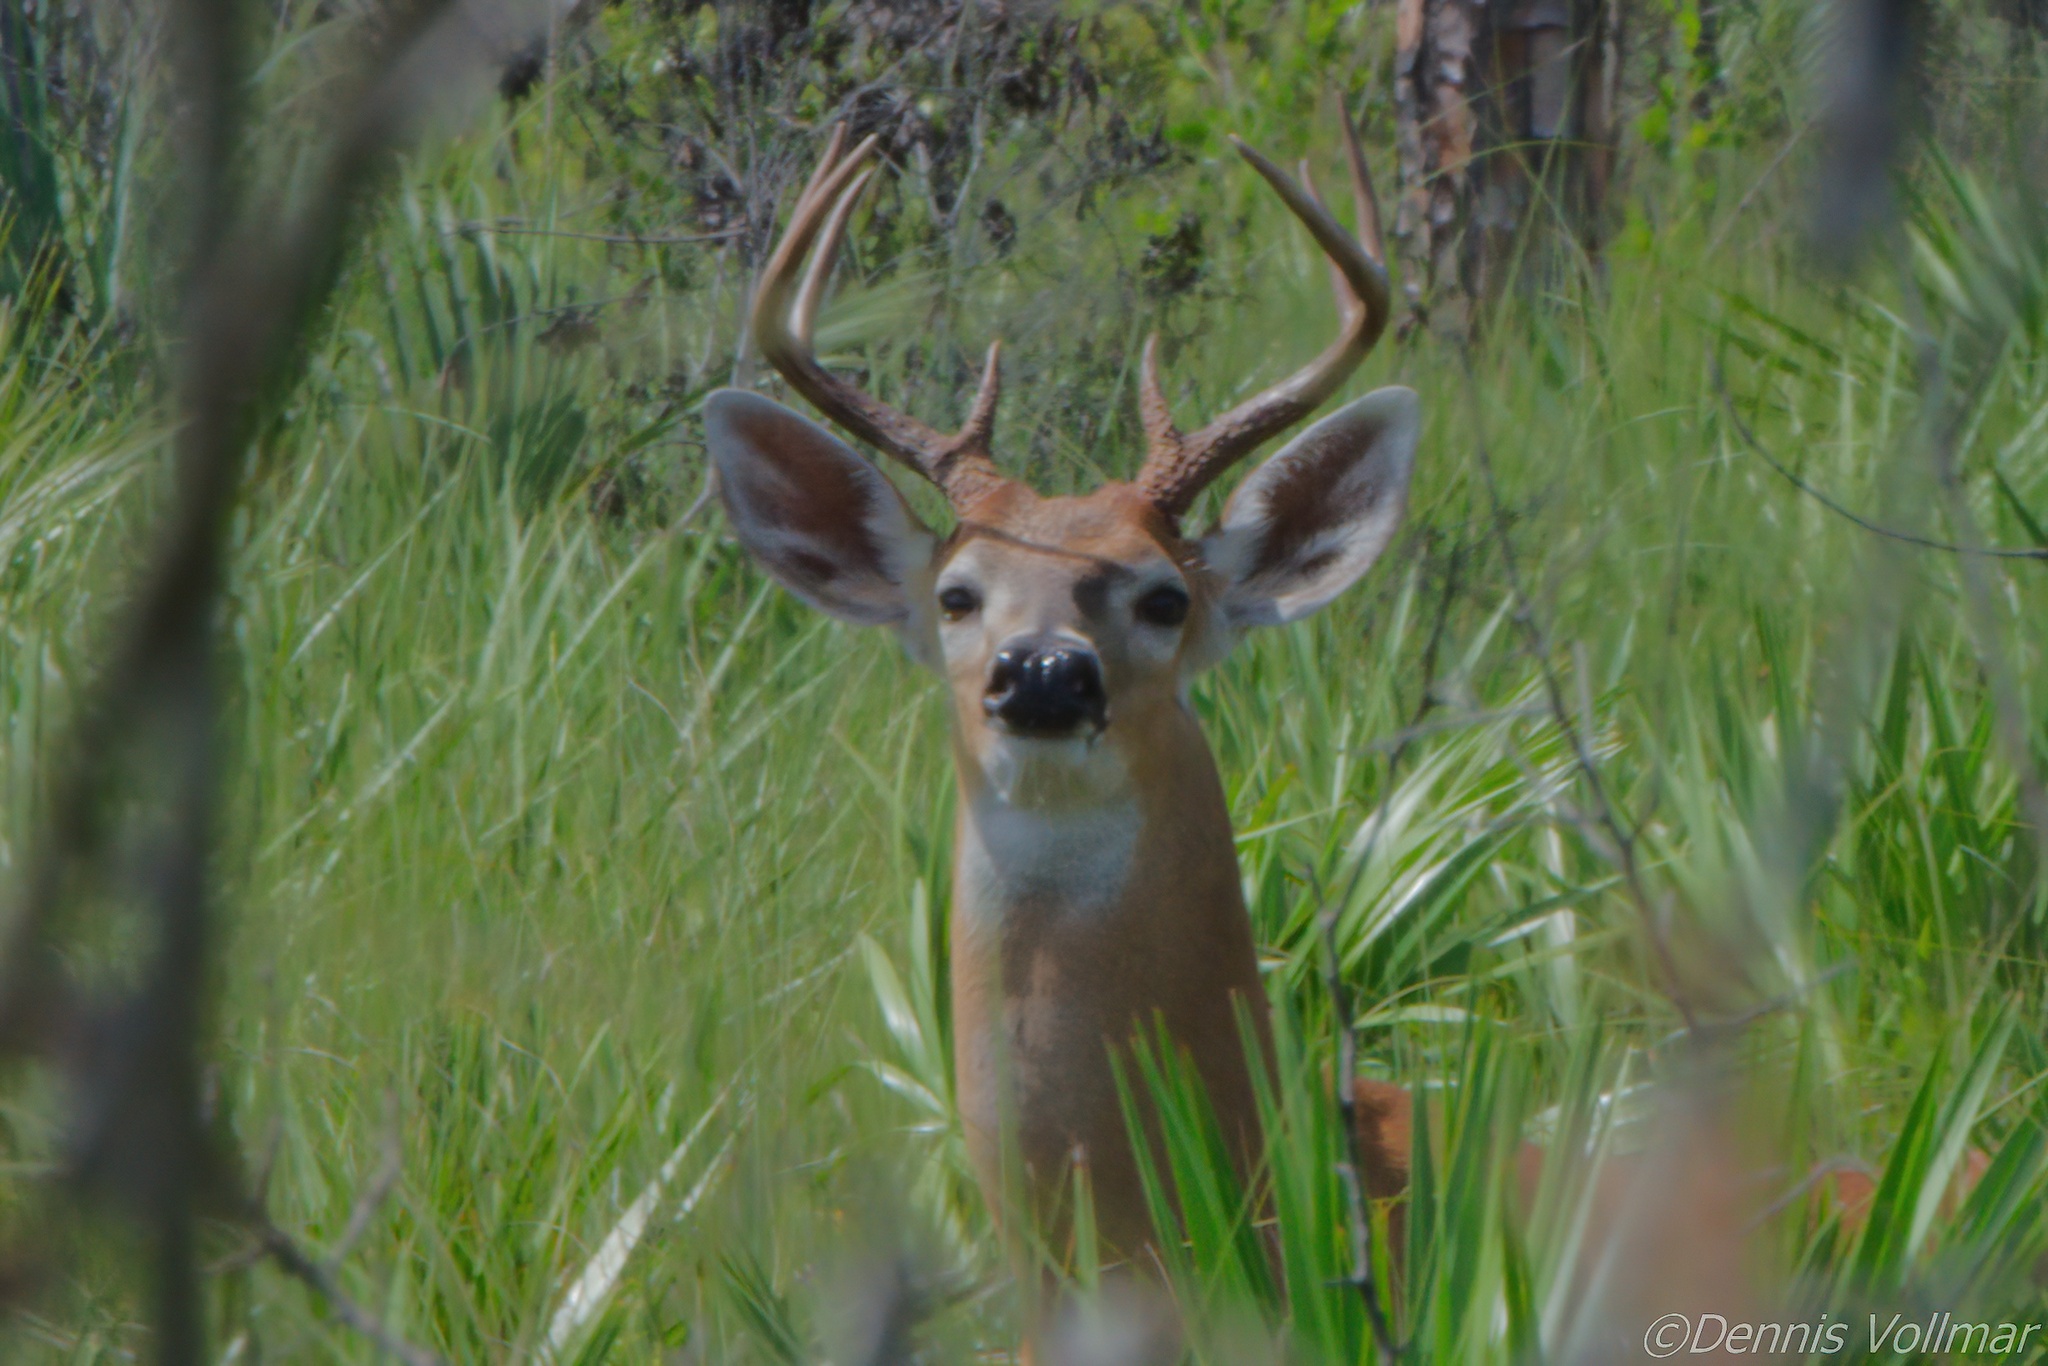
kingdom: Animalia
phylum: Chordata
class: Mammalia
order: Artiodactyla
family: Cervidae
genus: Odocoileus
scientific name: Odocoileus virginianus
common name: White-tailed deer
